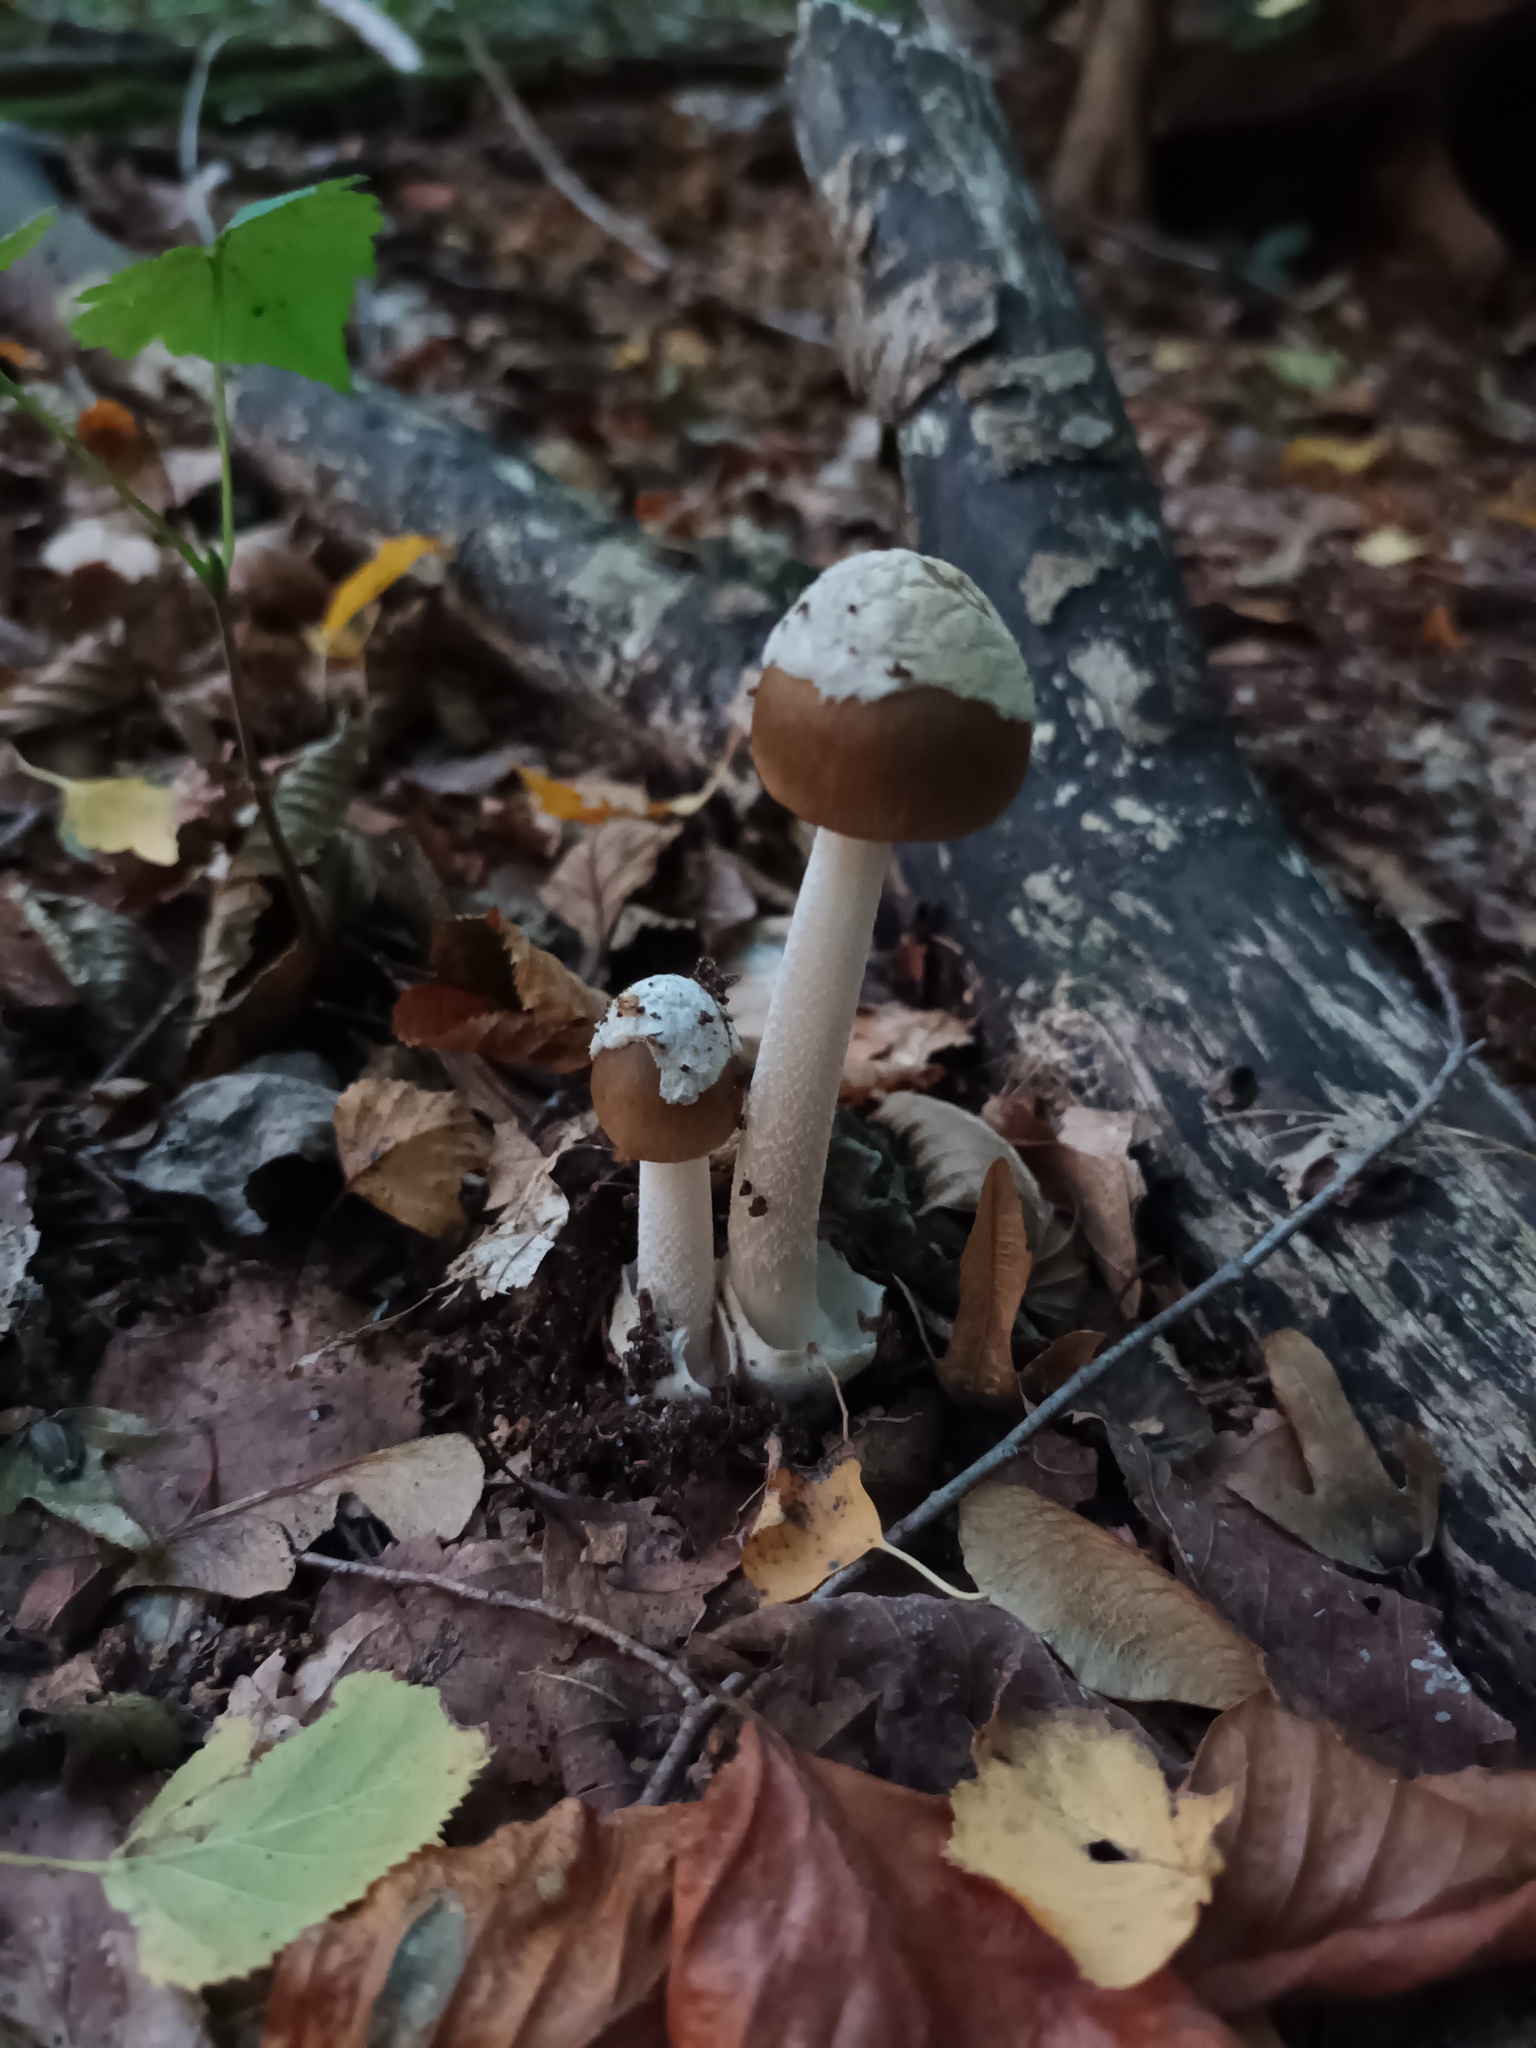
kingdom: Fungi
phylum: Basidiomycota
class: Agaricomycetes
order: Agaricales
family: Amanitaceae
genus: Amanita
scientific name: Amanita betulae
